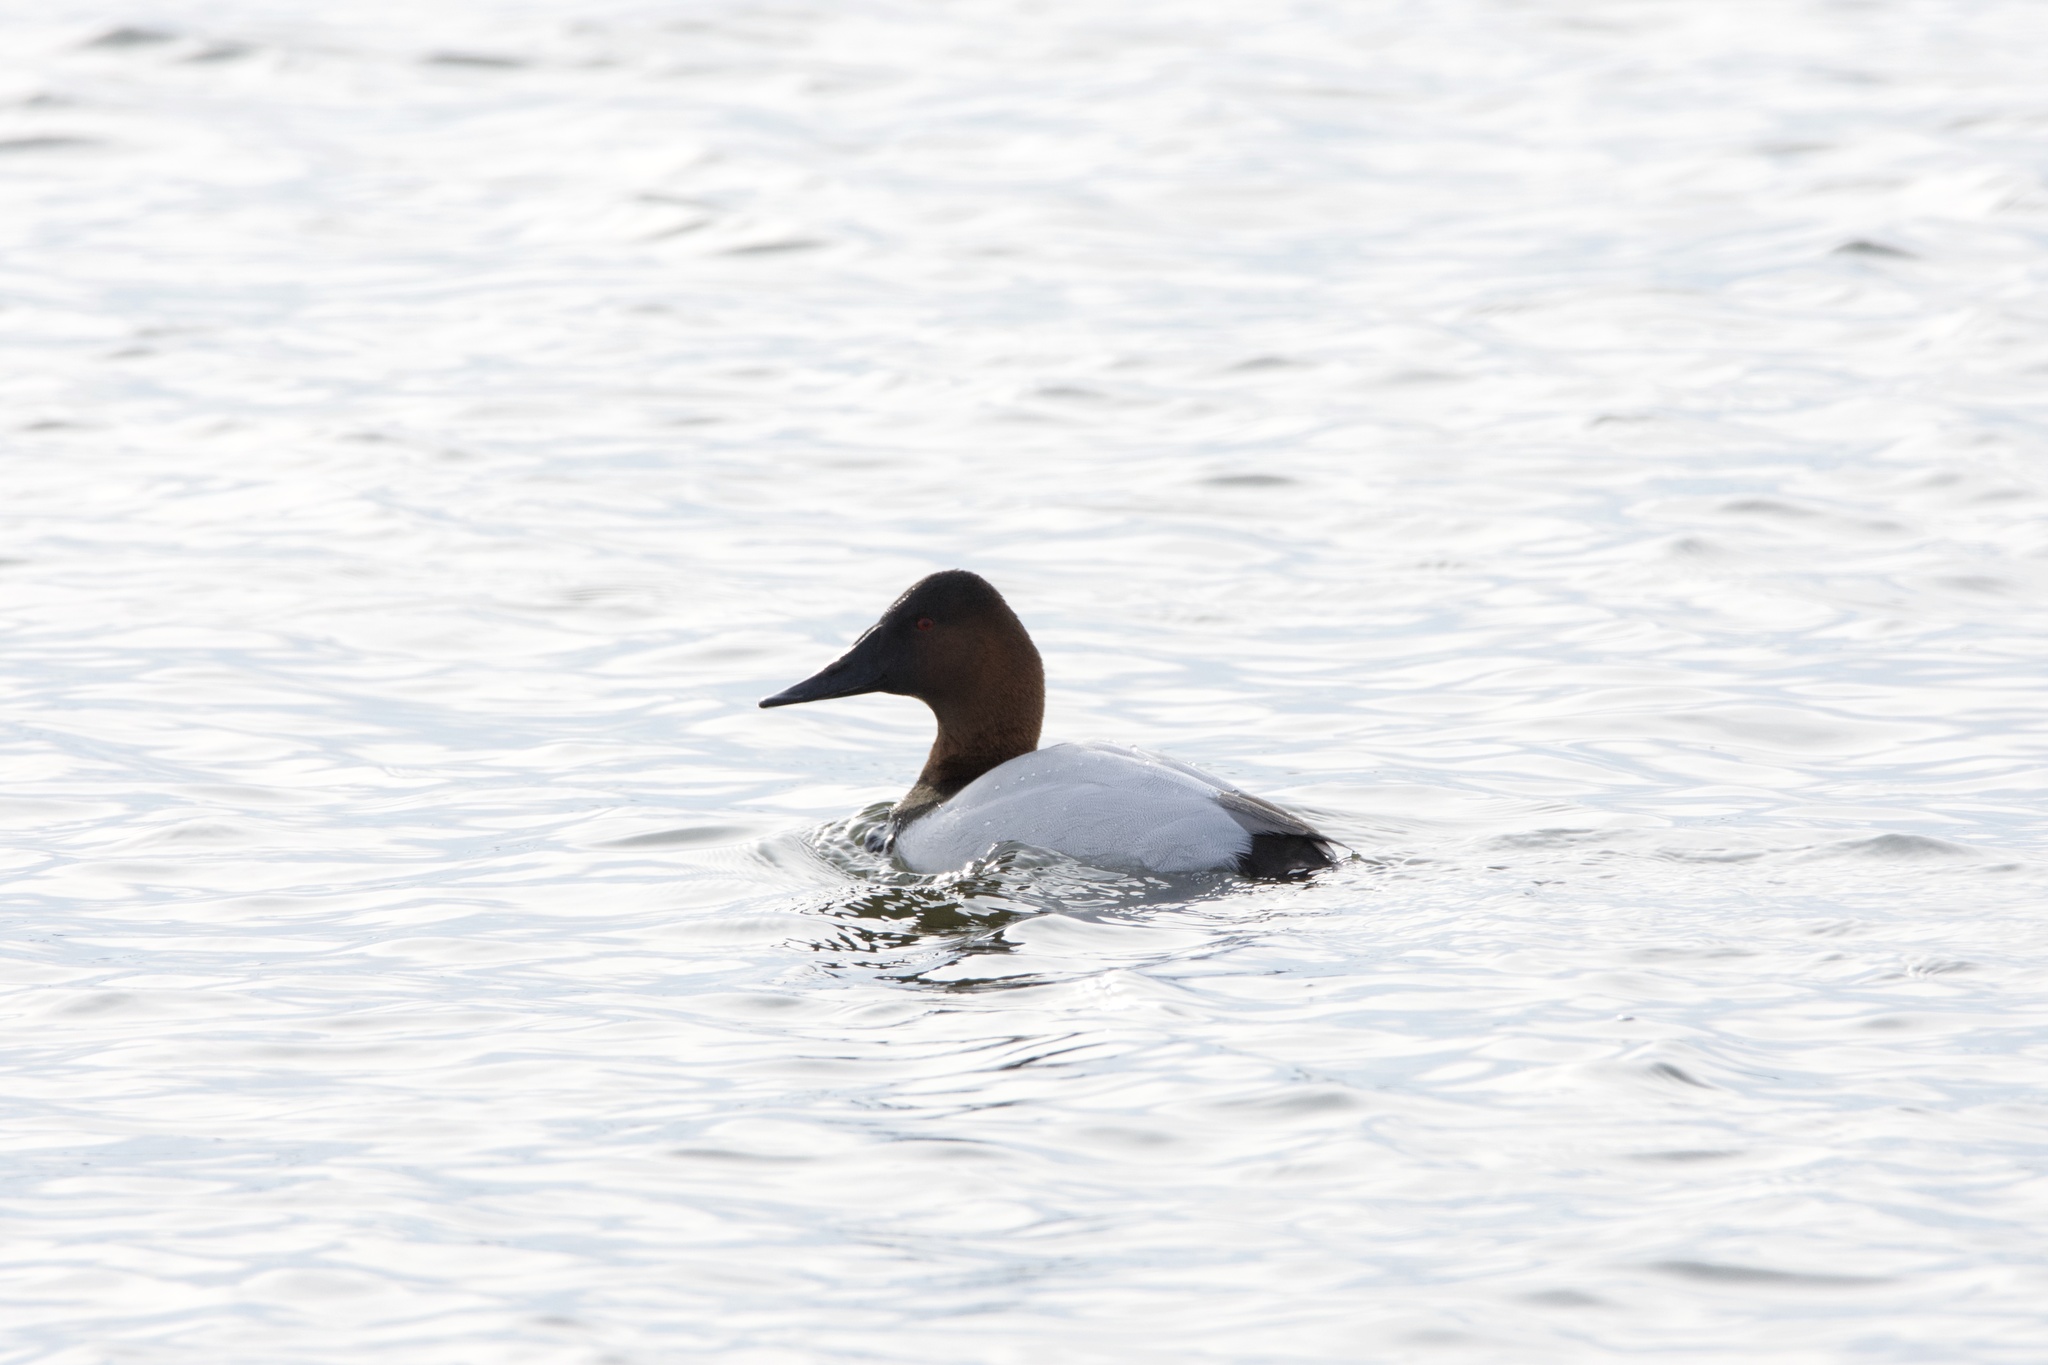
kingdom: Animalia
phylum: Chordata
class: Aves
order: Anseriformes
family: Anatidae
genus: Aythya
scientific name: Aythya valisineria
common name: Canvasback
